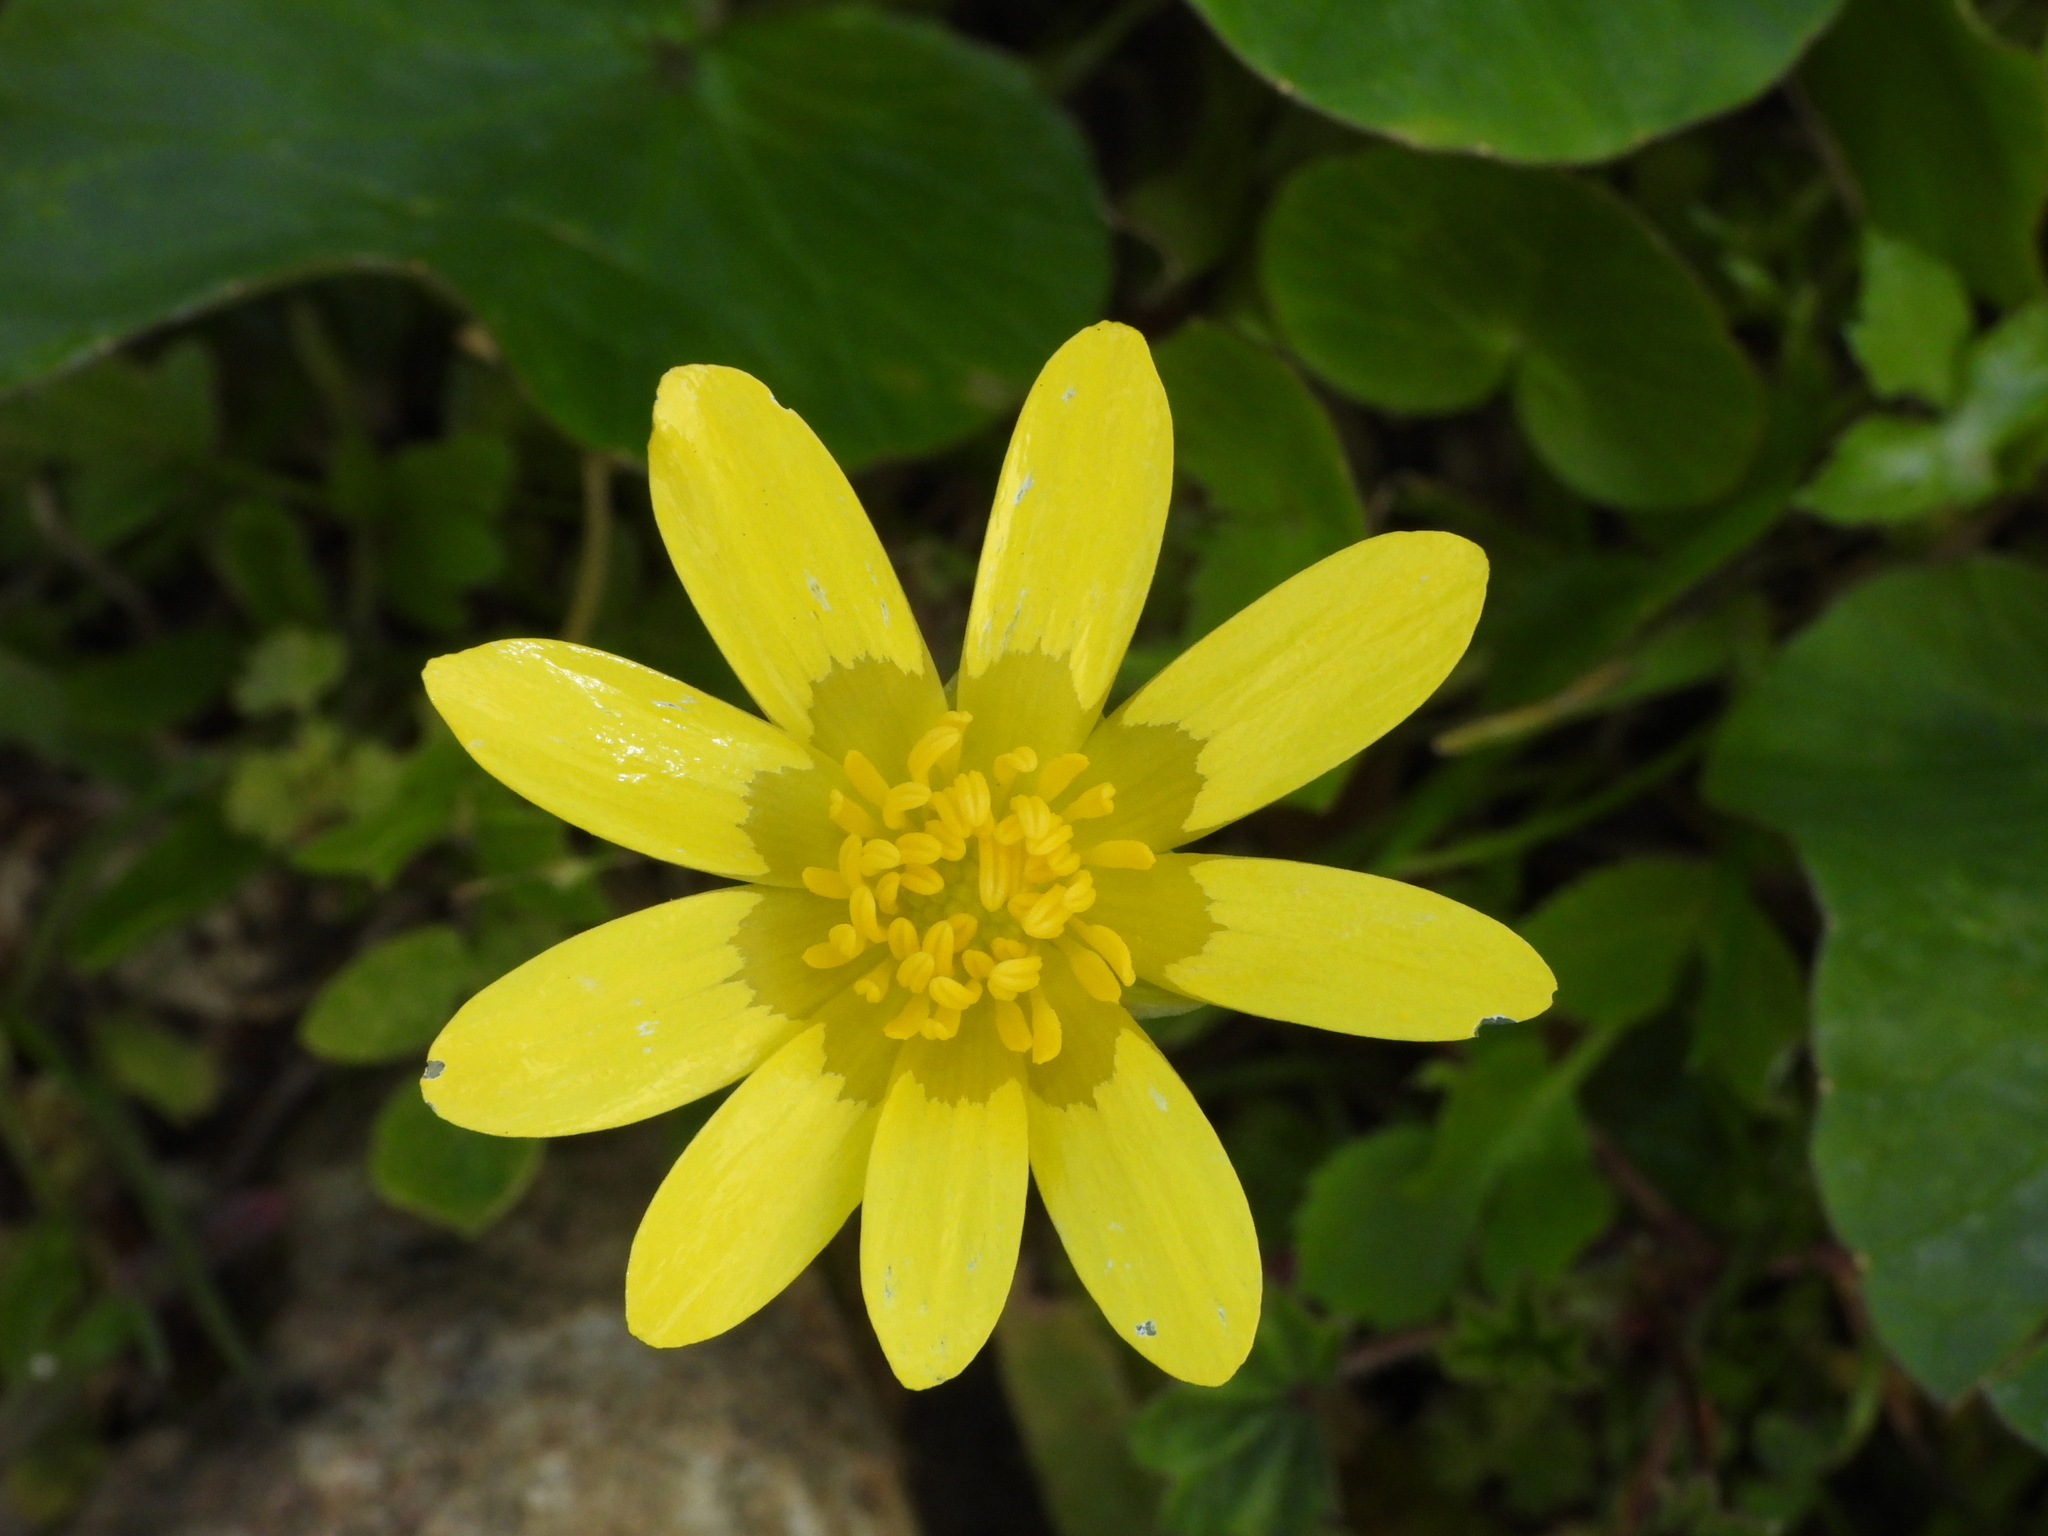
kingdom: Plantae
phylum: Tracheophyta
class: Magnoliopsida
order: Ranunculales
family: Ranunculaceae
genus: Ficaria
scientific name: Ficaria chrysocephala
